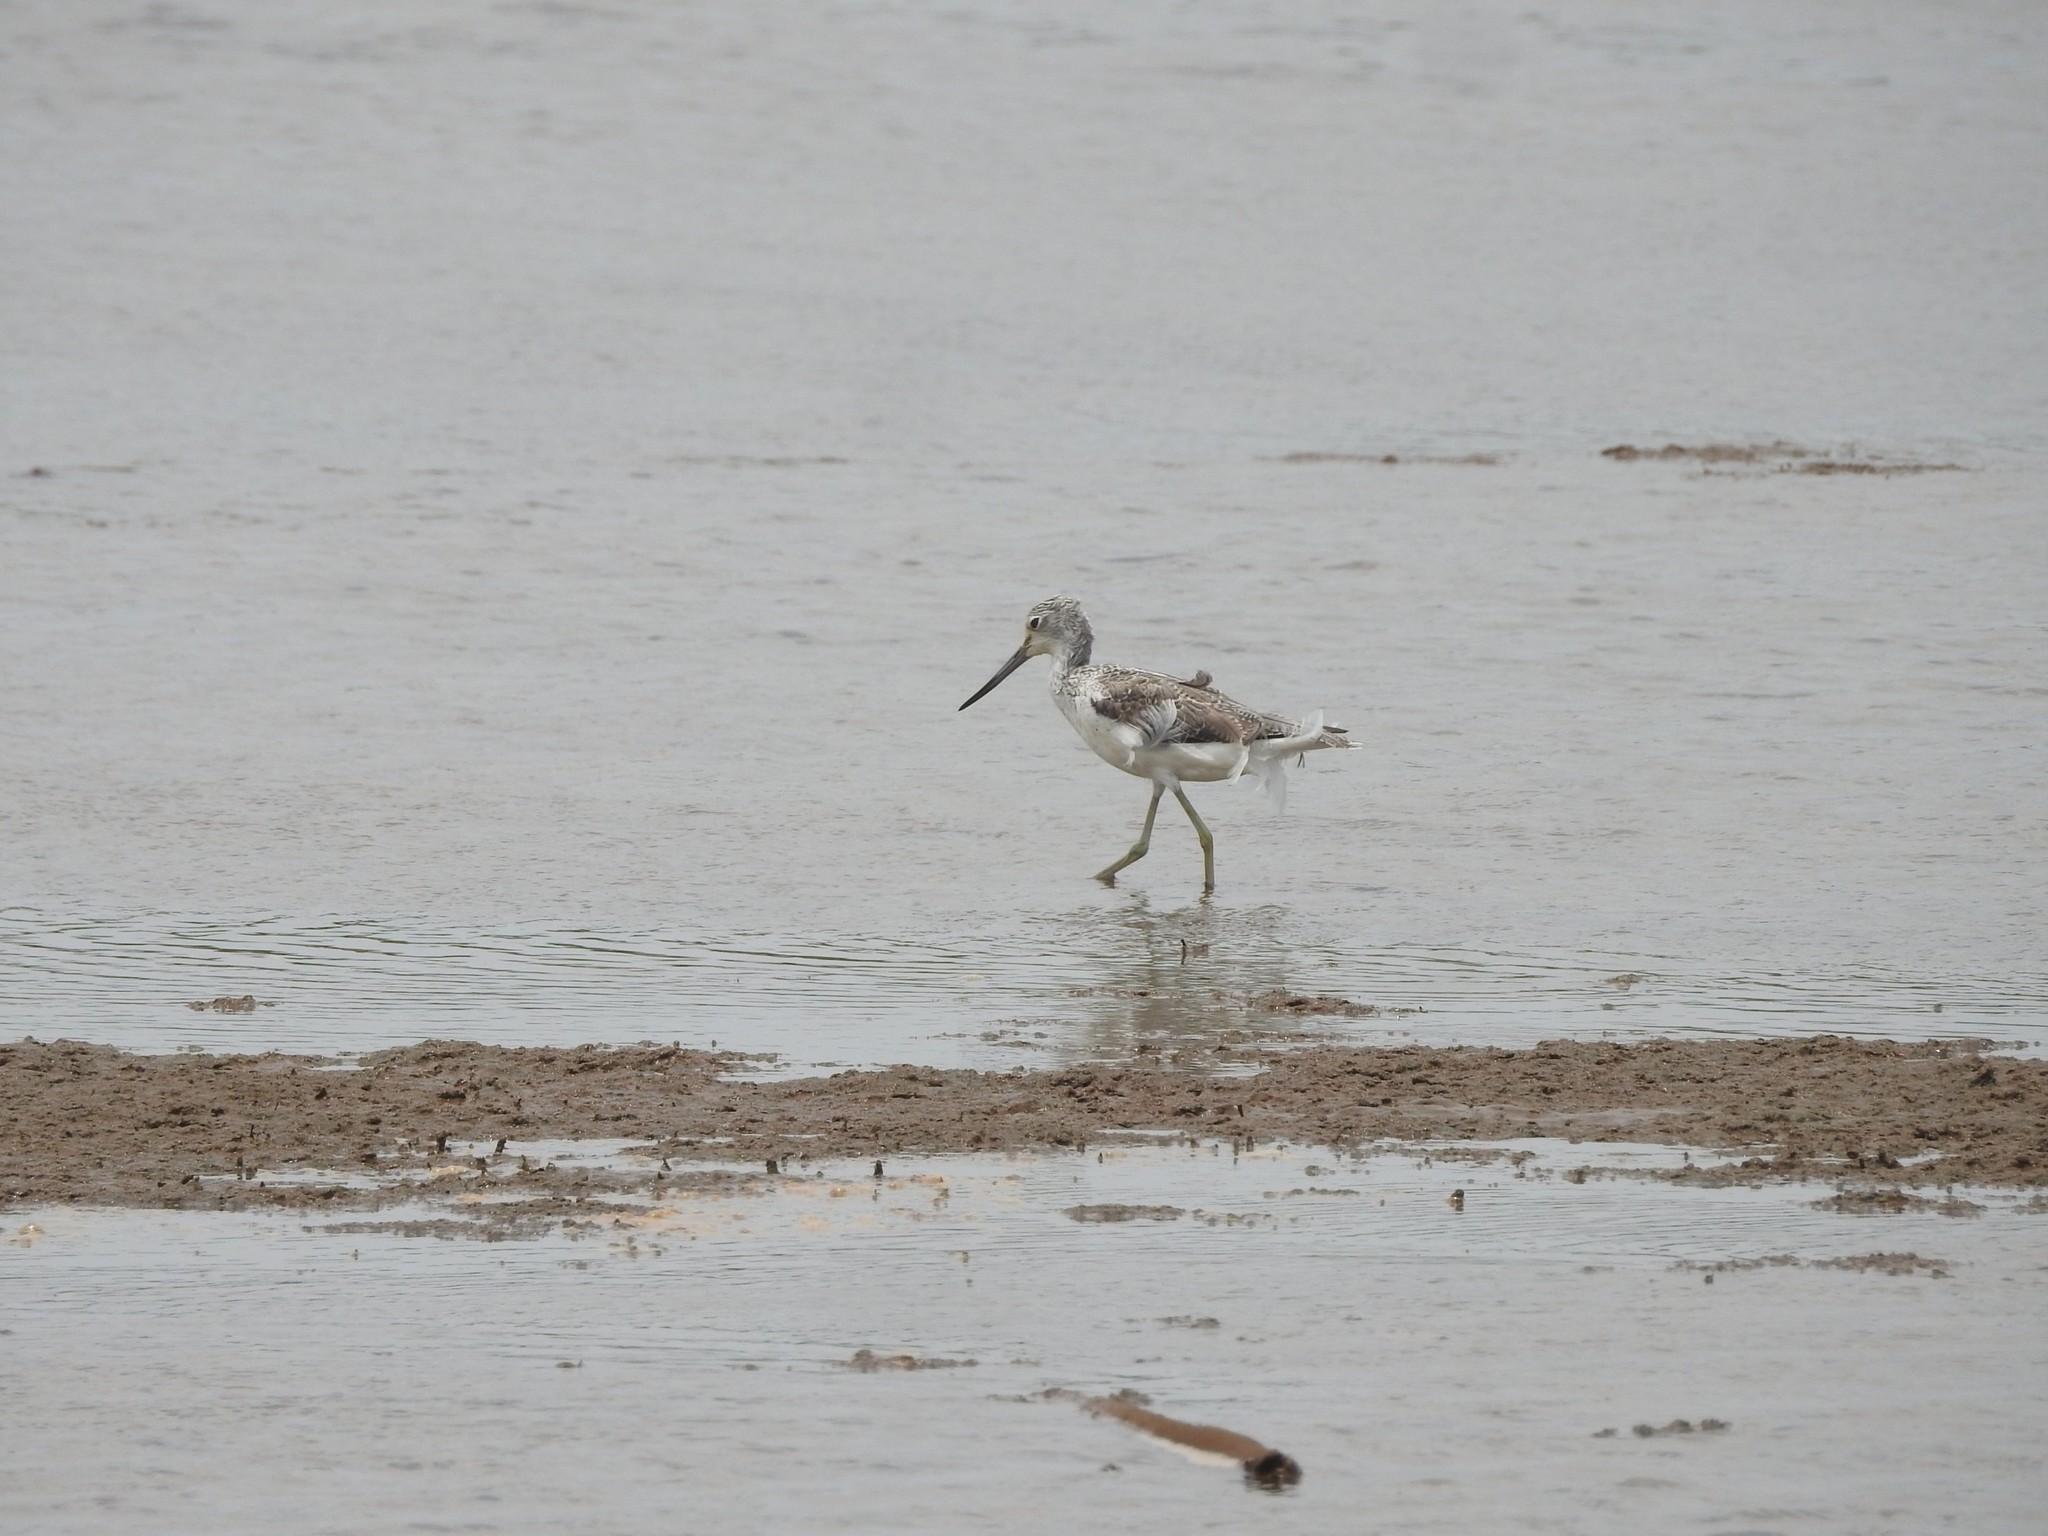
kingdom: Animalia
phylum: Chordata
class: Aves
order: Charadriiformes
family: Scolopacidae
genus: Tringa
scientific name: Tringa nebularia
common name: Common greenshank
